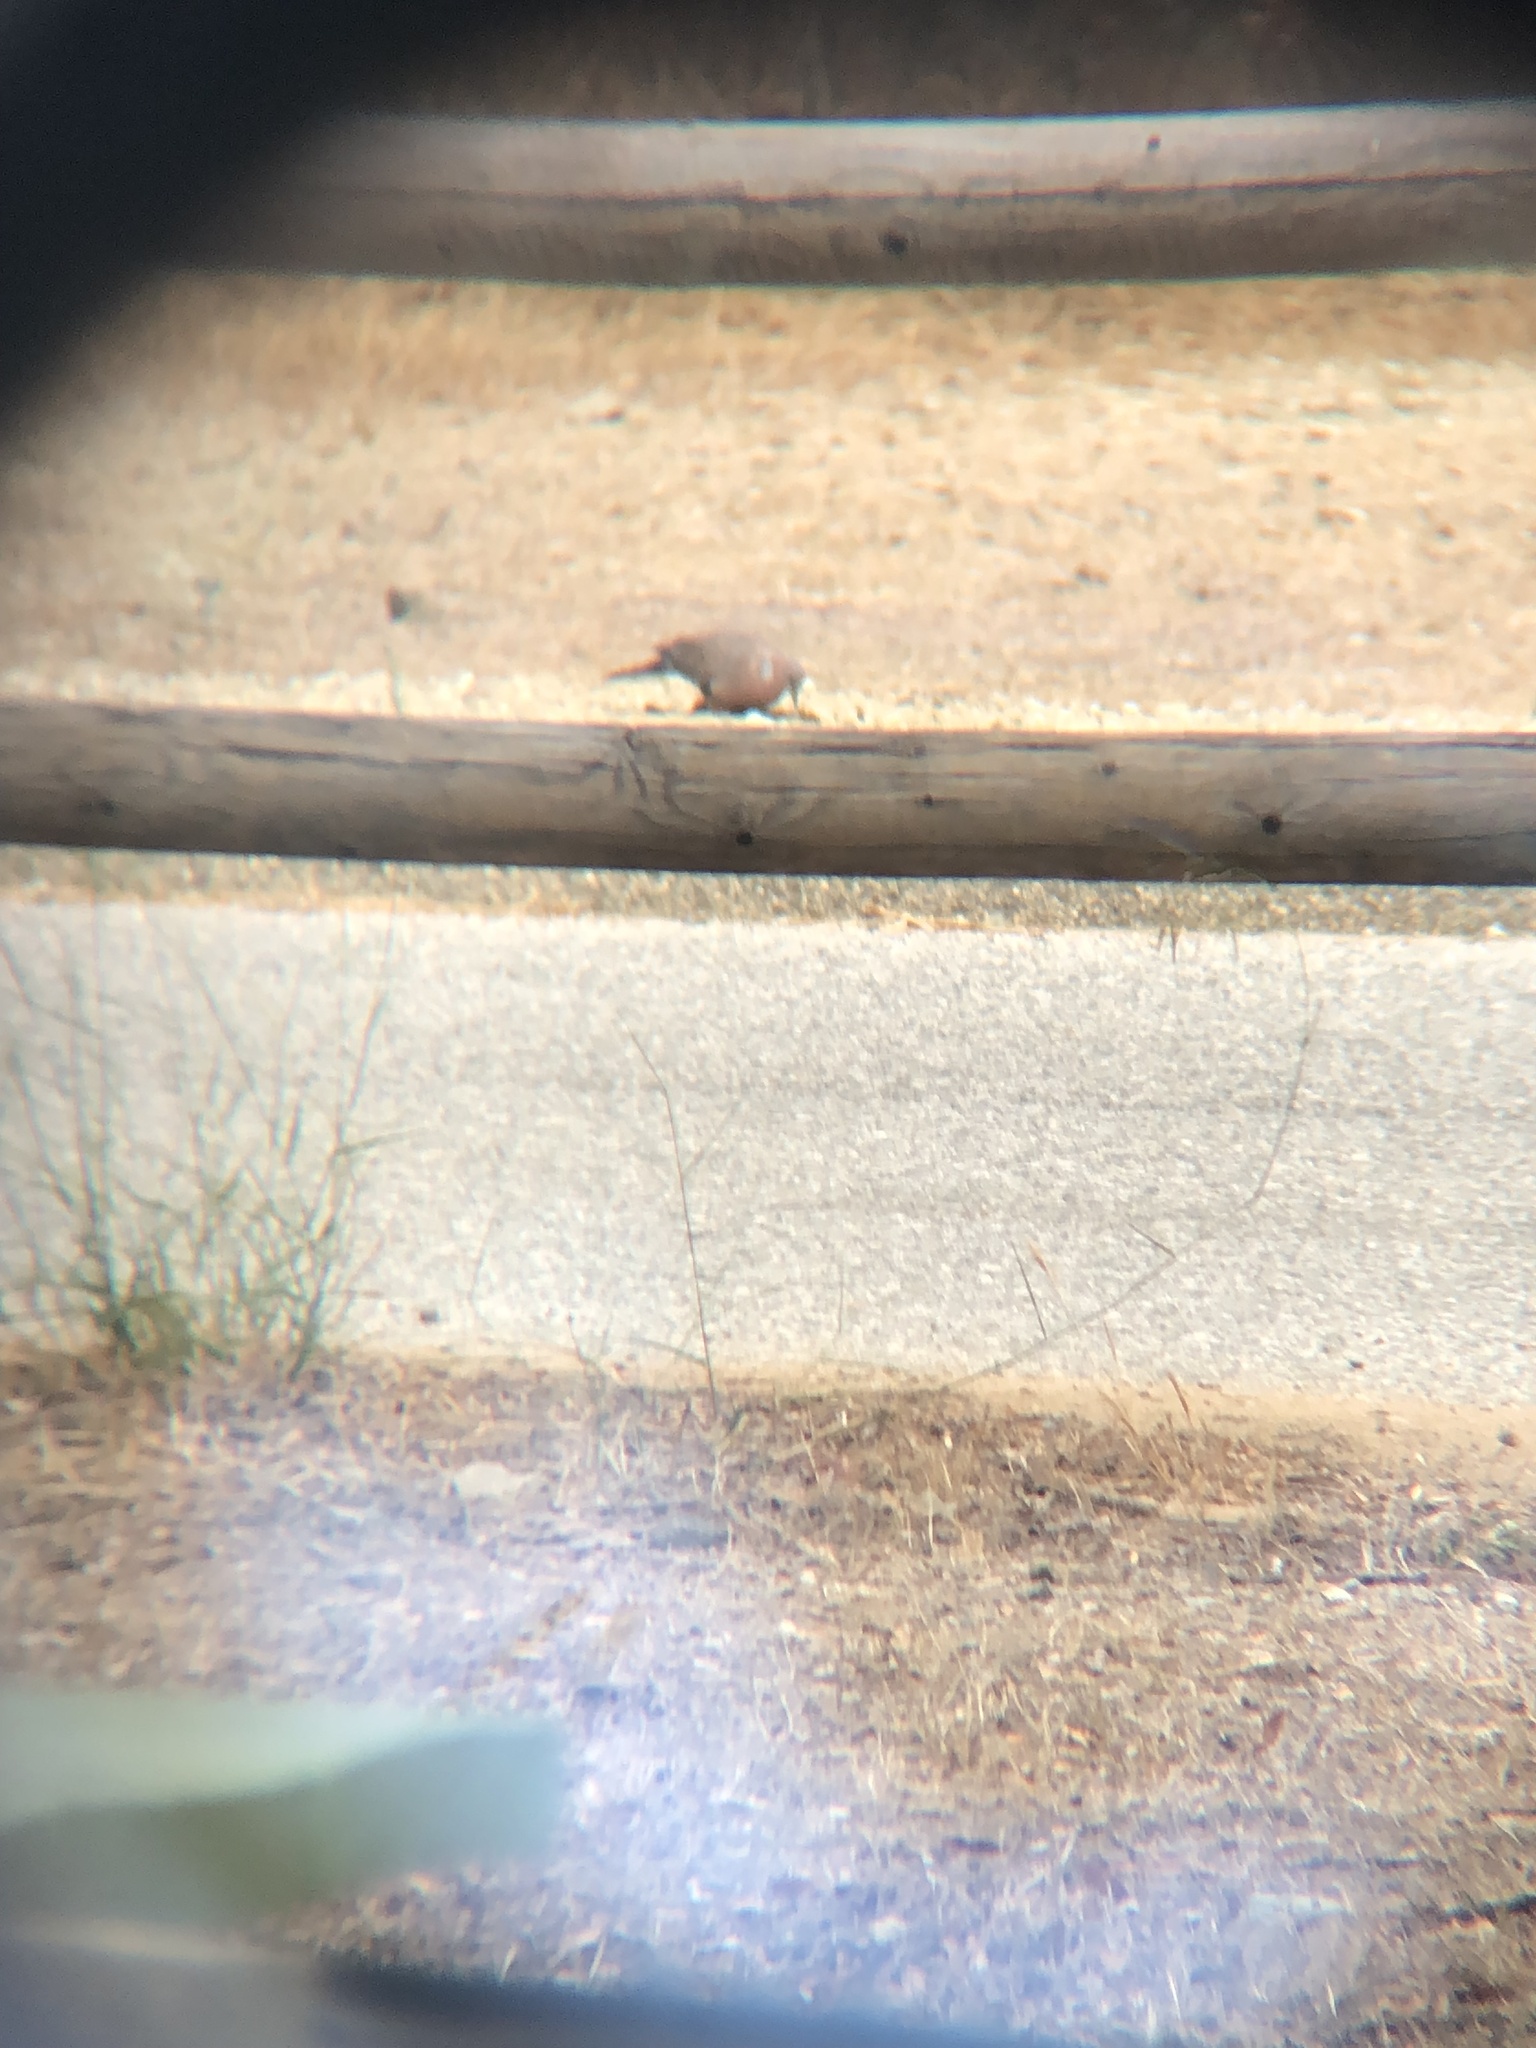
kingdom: Animalia
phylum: Chordata
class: Aves
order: Columbiformes
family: Columbidae
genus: Spilopelia
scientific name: Spilopelia chinensis
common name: Spotted dove
